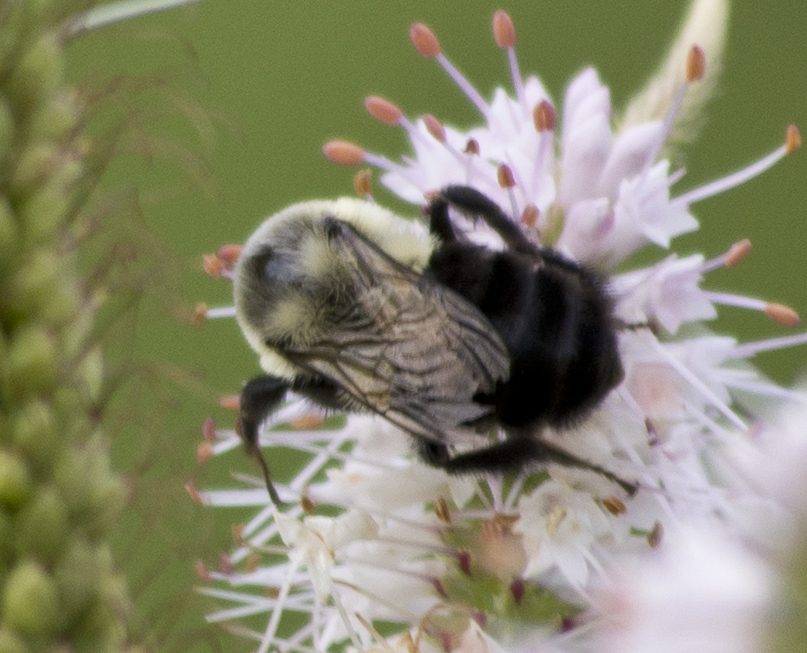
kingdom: Animalia
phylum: Arthropoda
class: Insecta
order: Hymenoptera
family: Apidae
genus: Bombus
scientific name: Bombus impatiens
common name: Common eastern bumble bee
